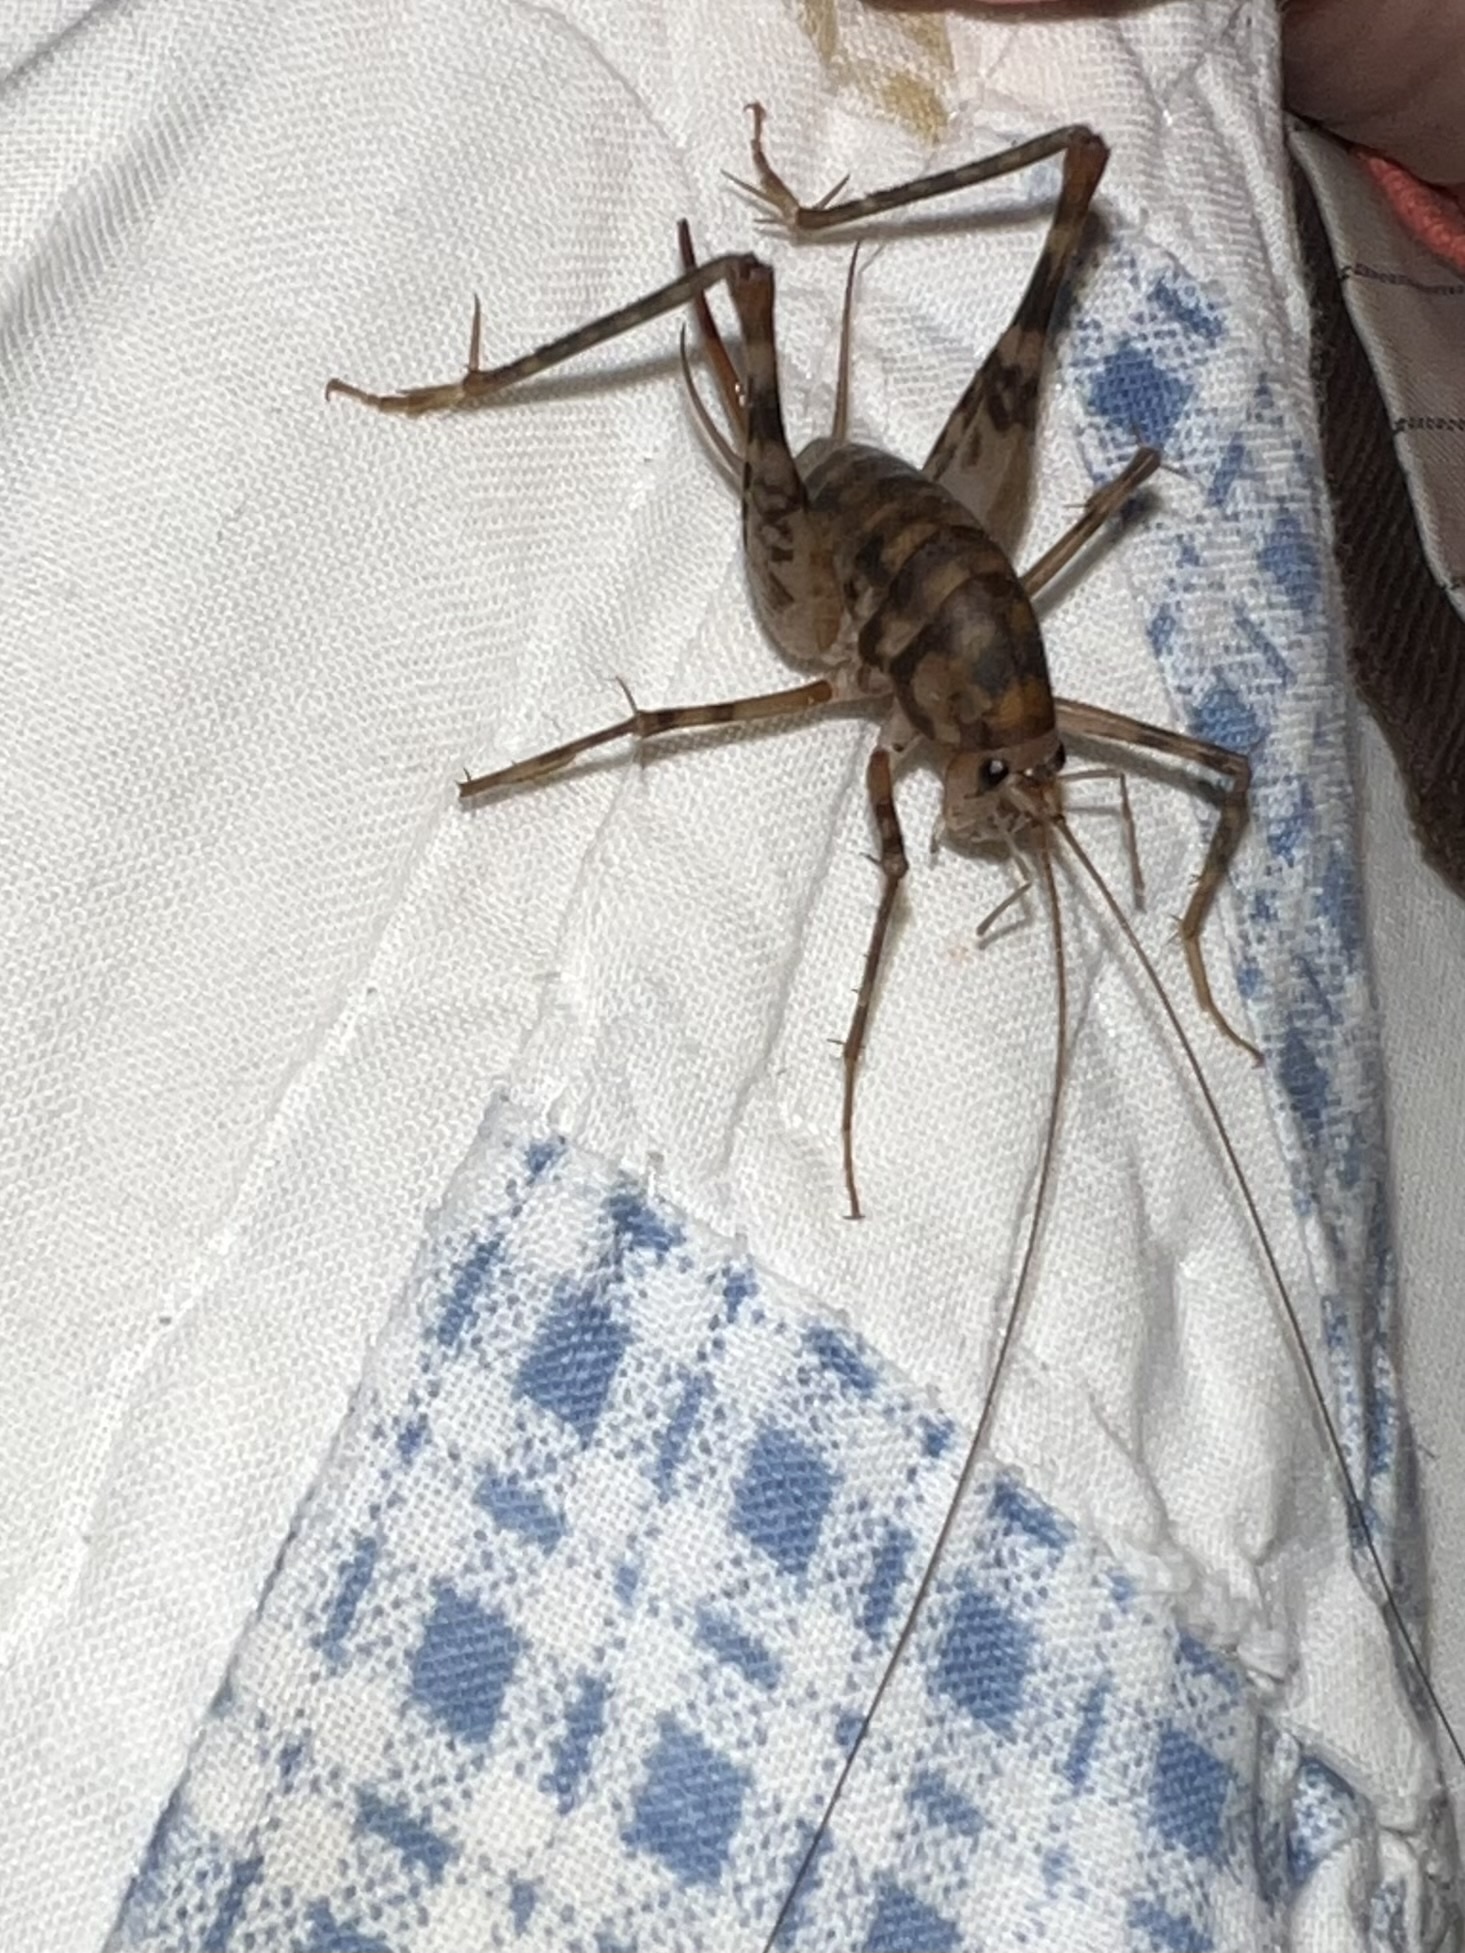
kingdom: Animalia
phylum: Arthropoda
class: Insecta
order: Orthoptera
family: Rhaphidophoridae
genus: Tachycines
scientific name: Tachycines asynamorus
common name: Greenhouse camel cricket
